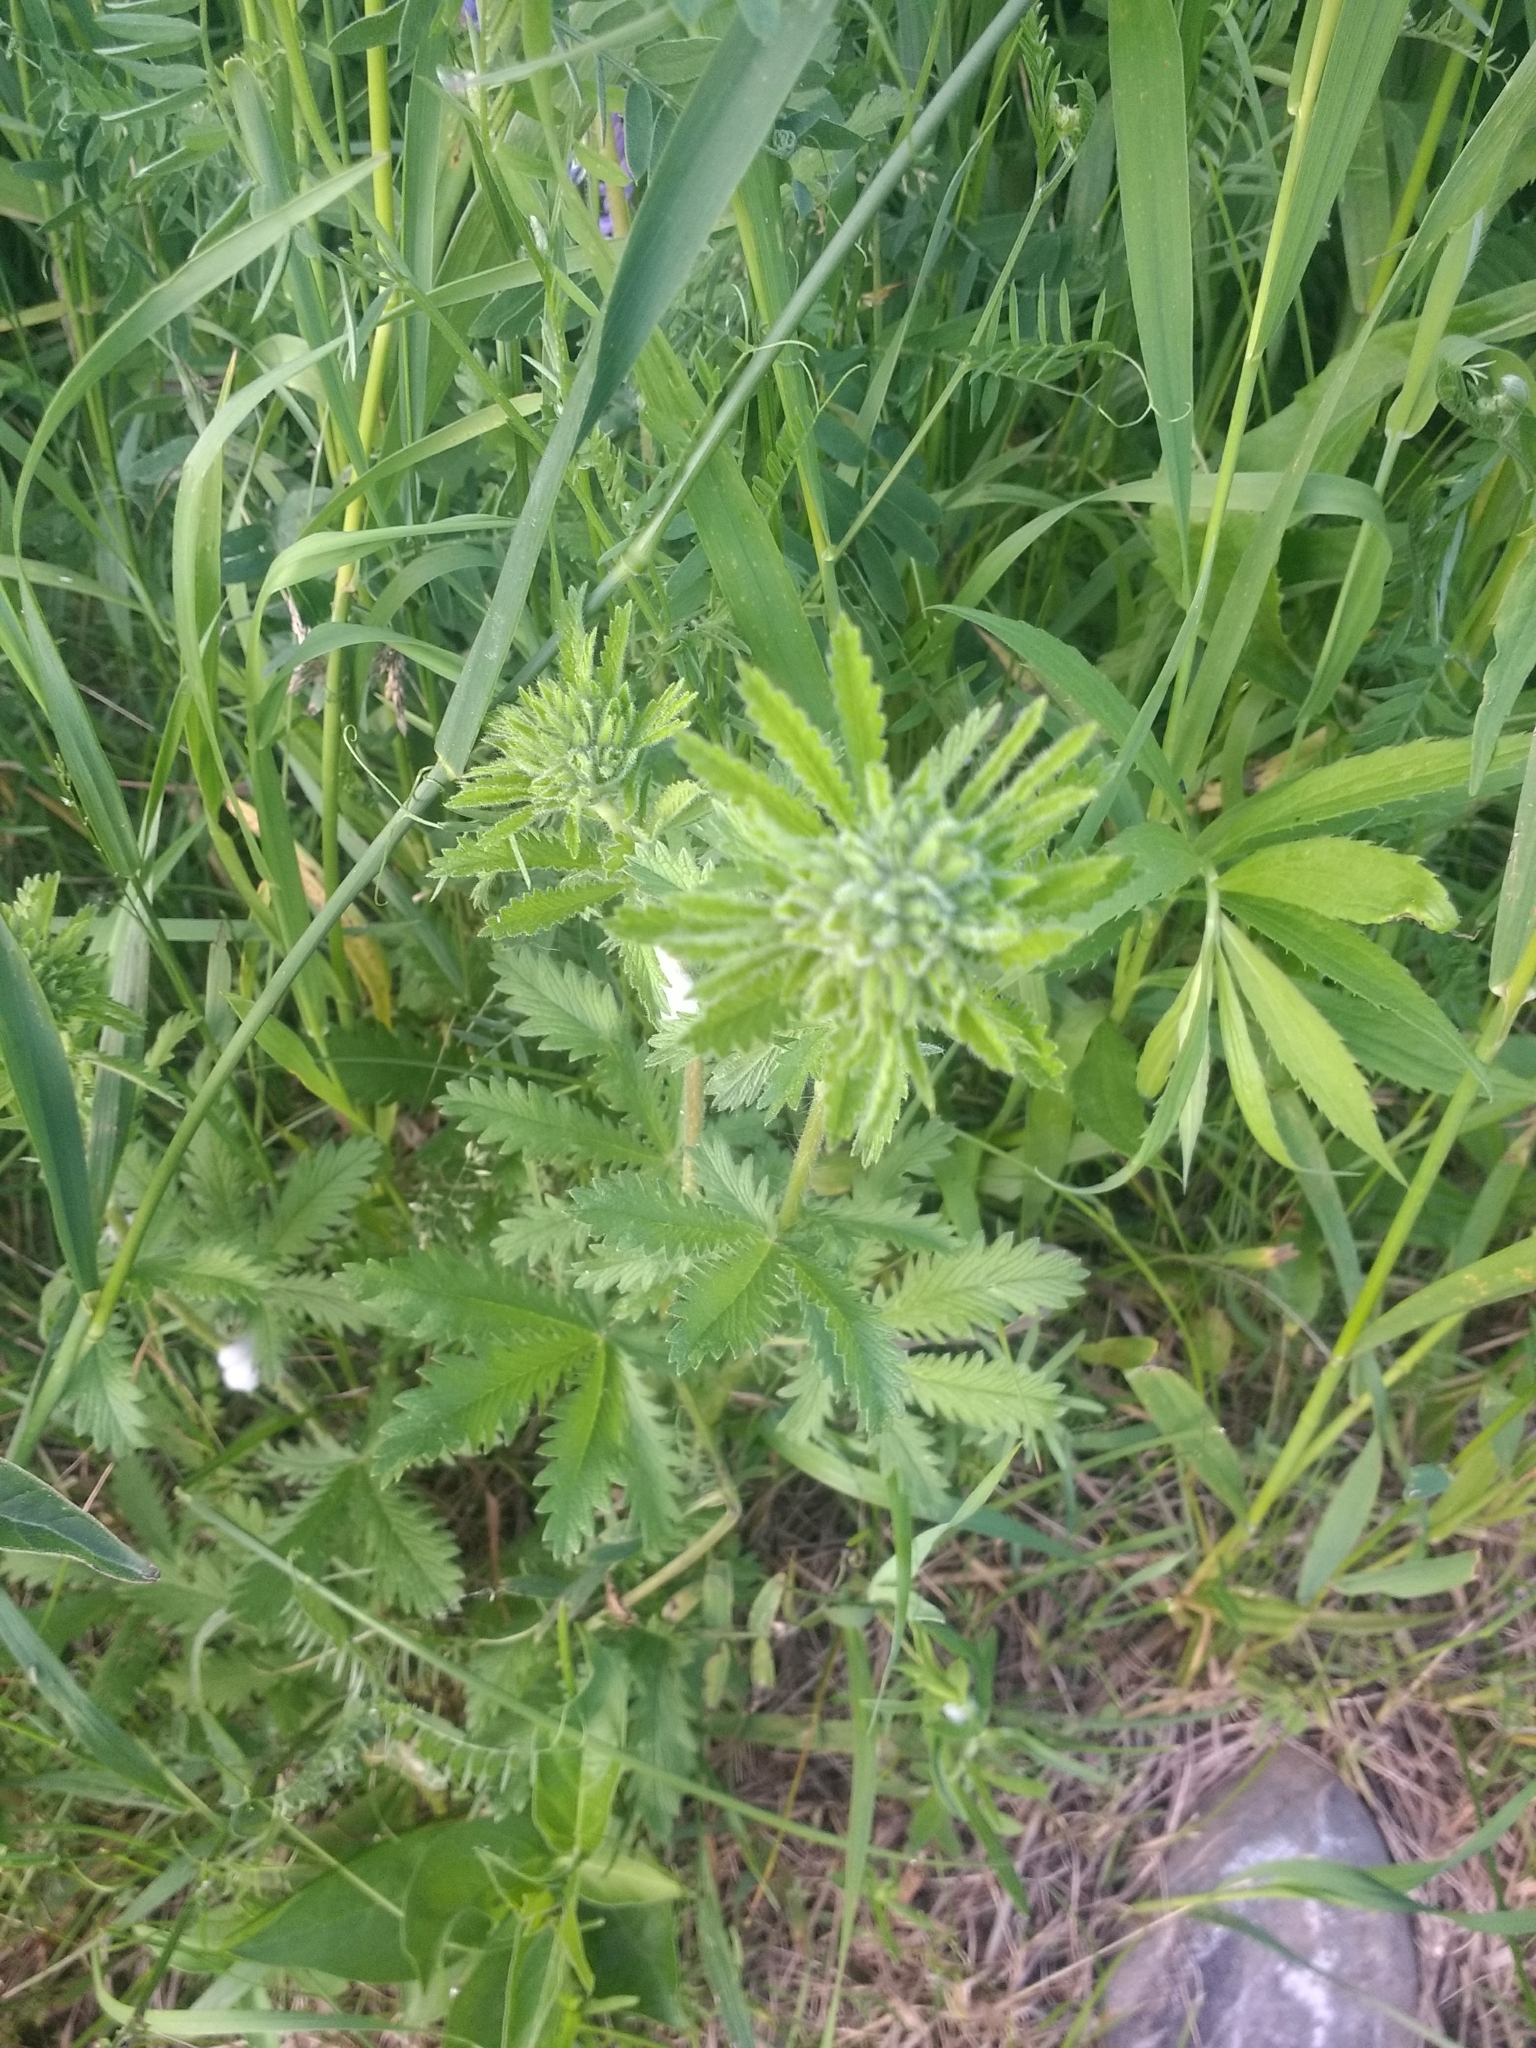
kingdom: Plantae
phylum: Tracheophyta
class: Magnoliopsida
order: Rosales
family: Rosaceae
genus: Potentilla
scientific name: Potentilla recta
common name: Sulphur cinquefoil
